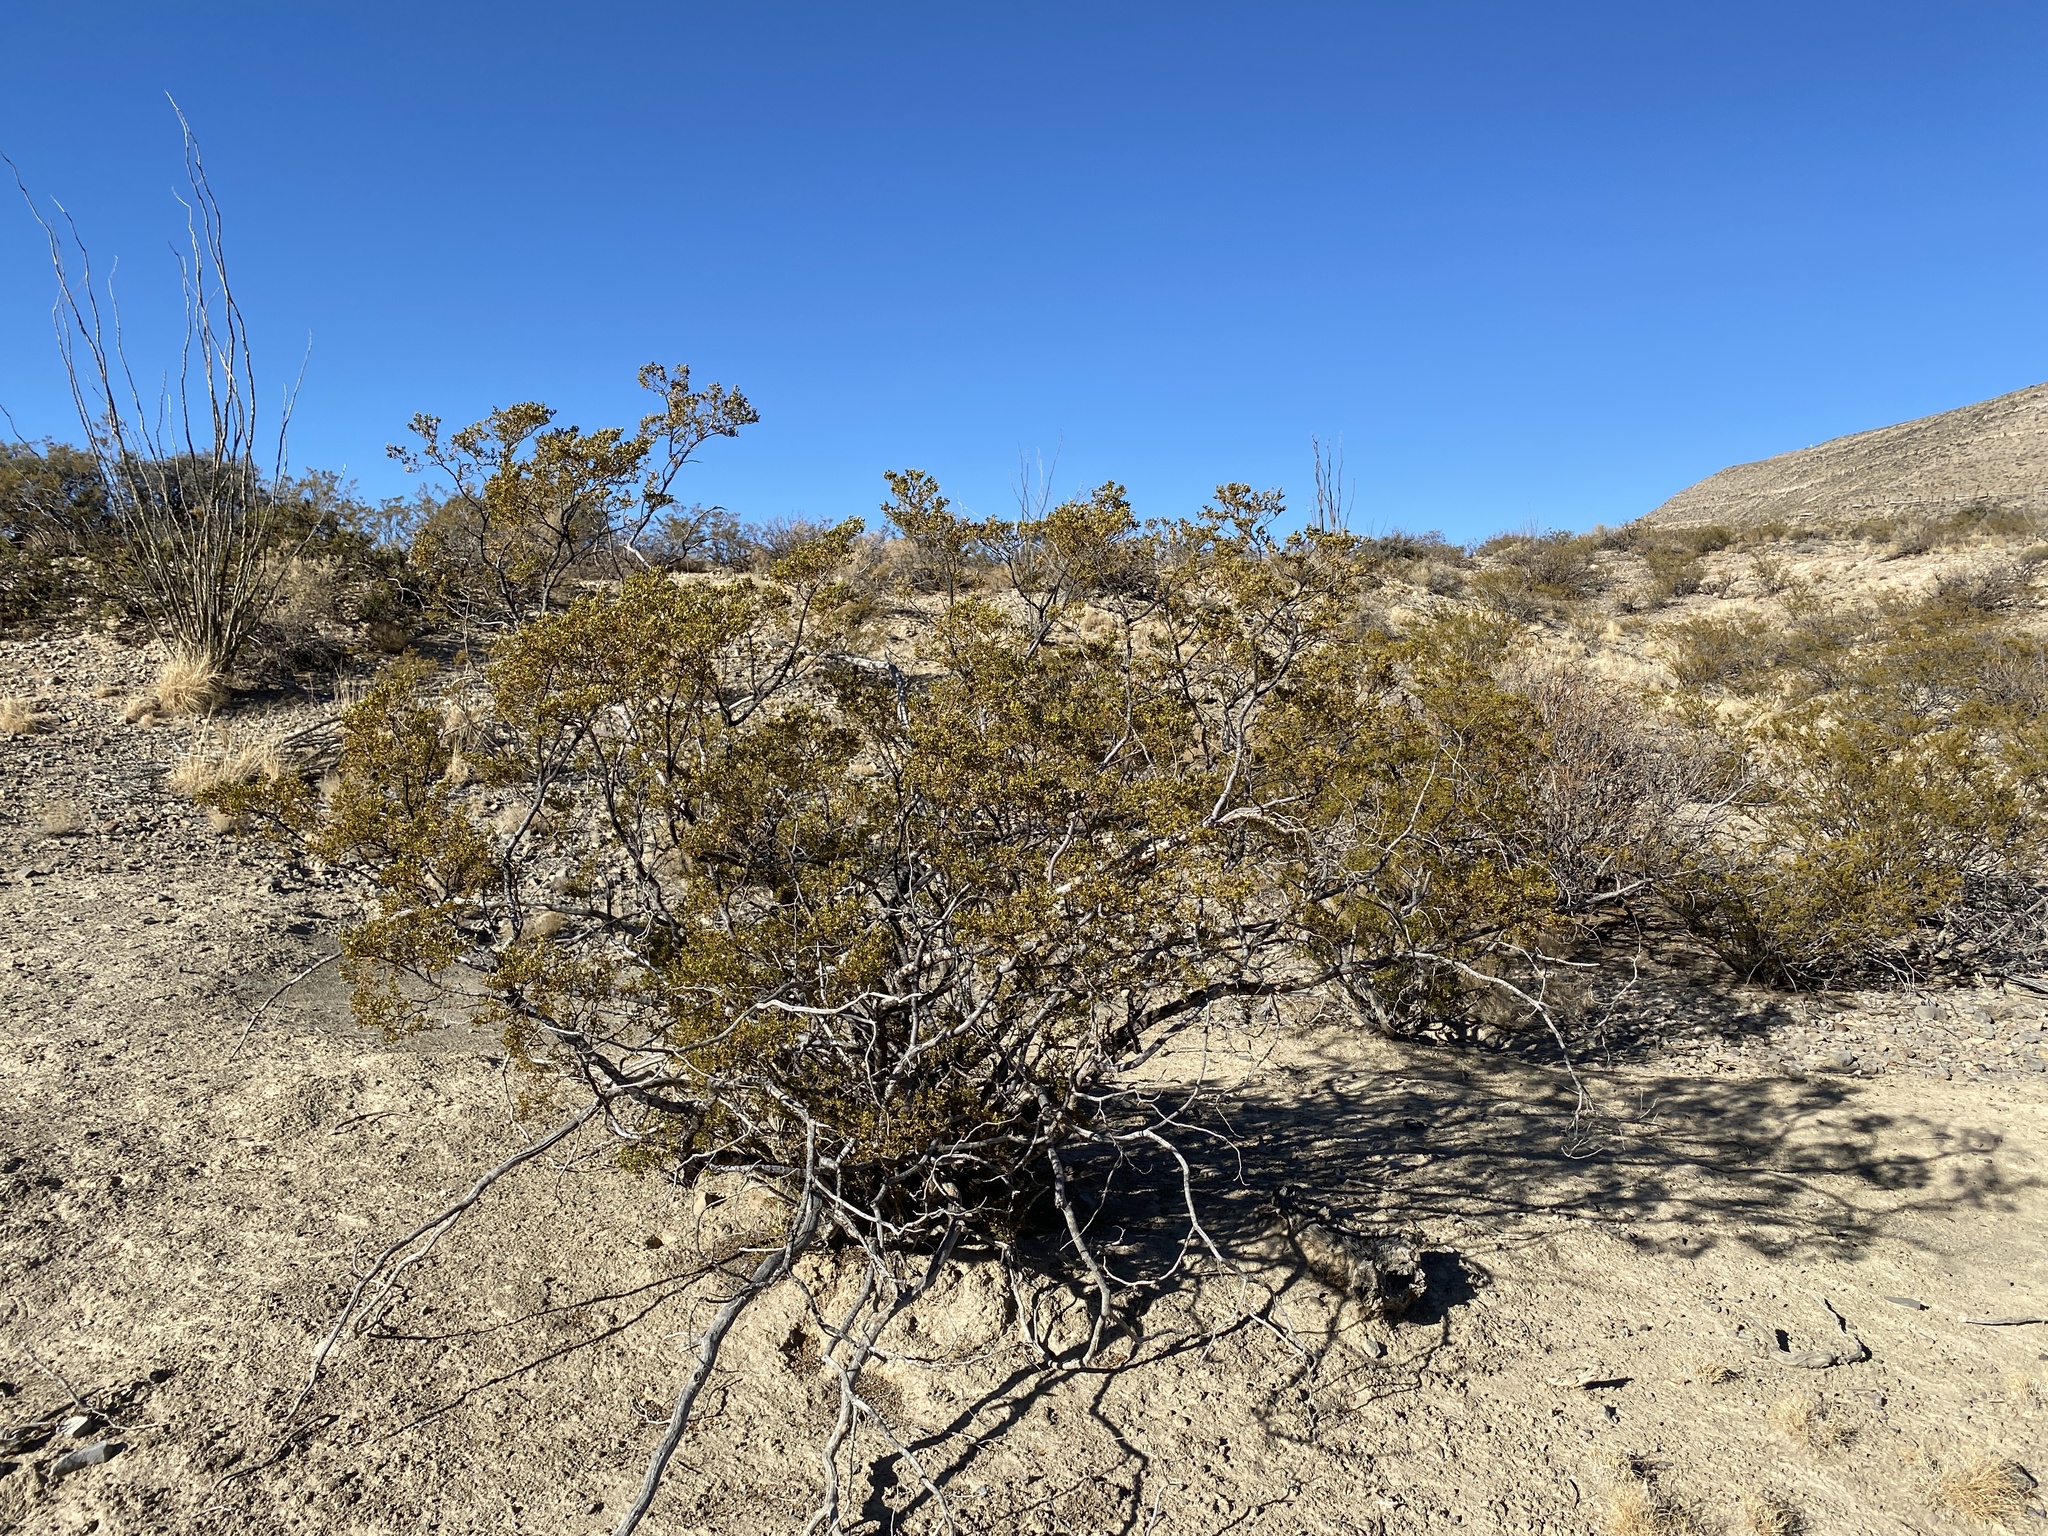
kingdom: Plantae
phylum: Tracheophyta
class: Magnoliopsida
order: Zygophyllales
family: Zygophyllaceae
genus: Larrea
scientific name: Larrea tridentata
